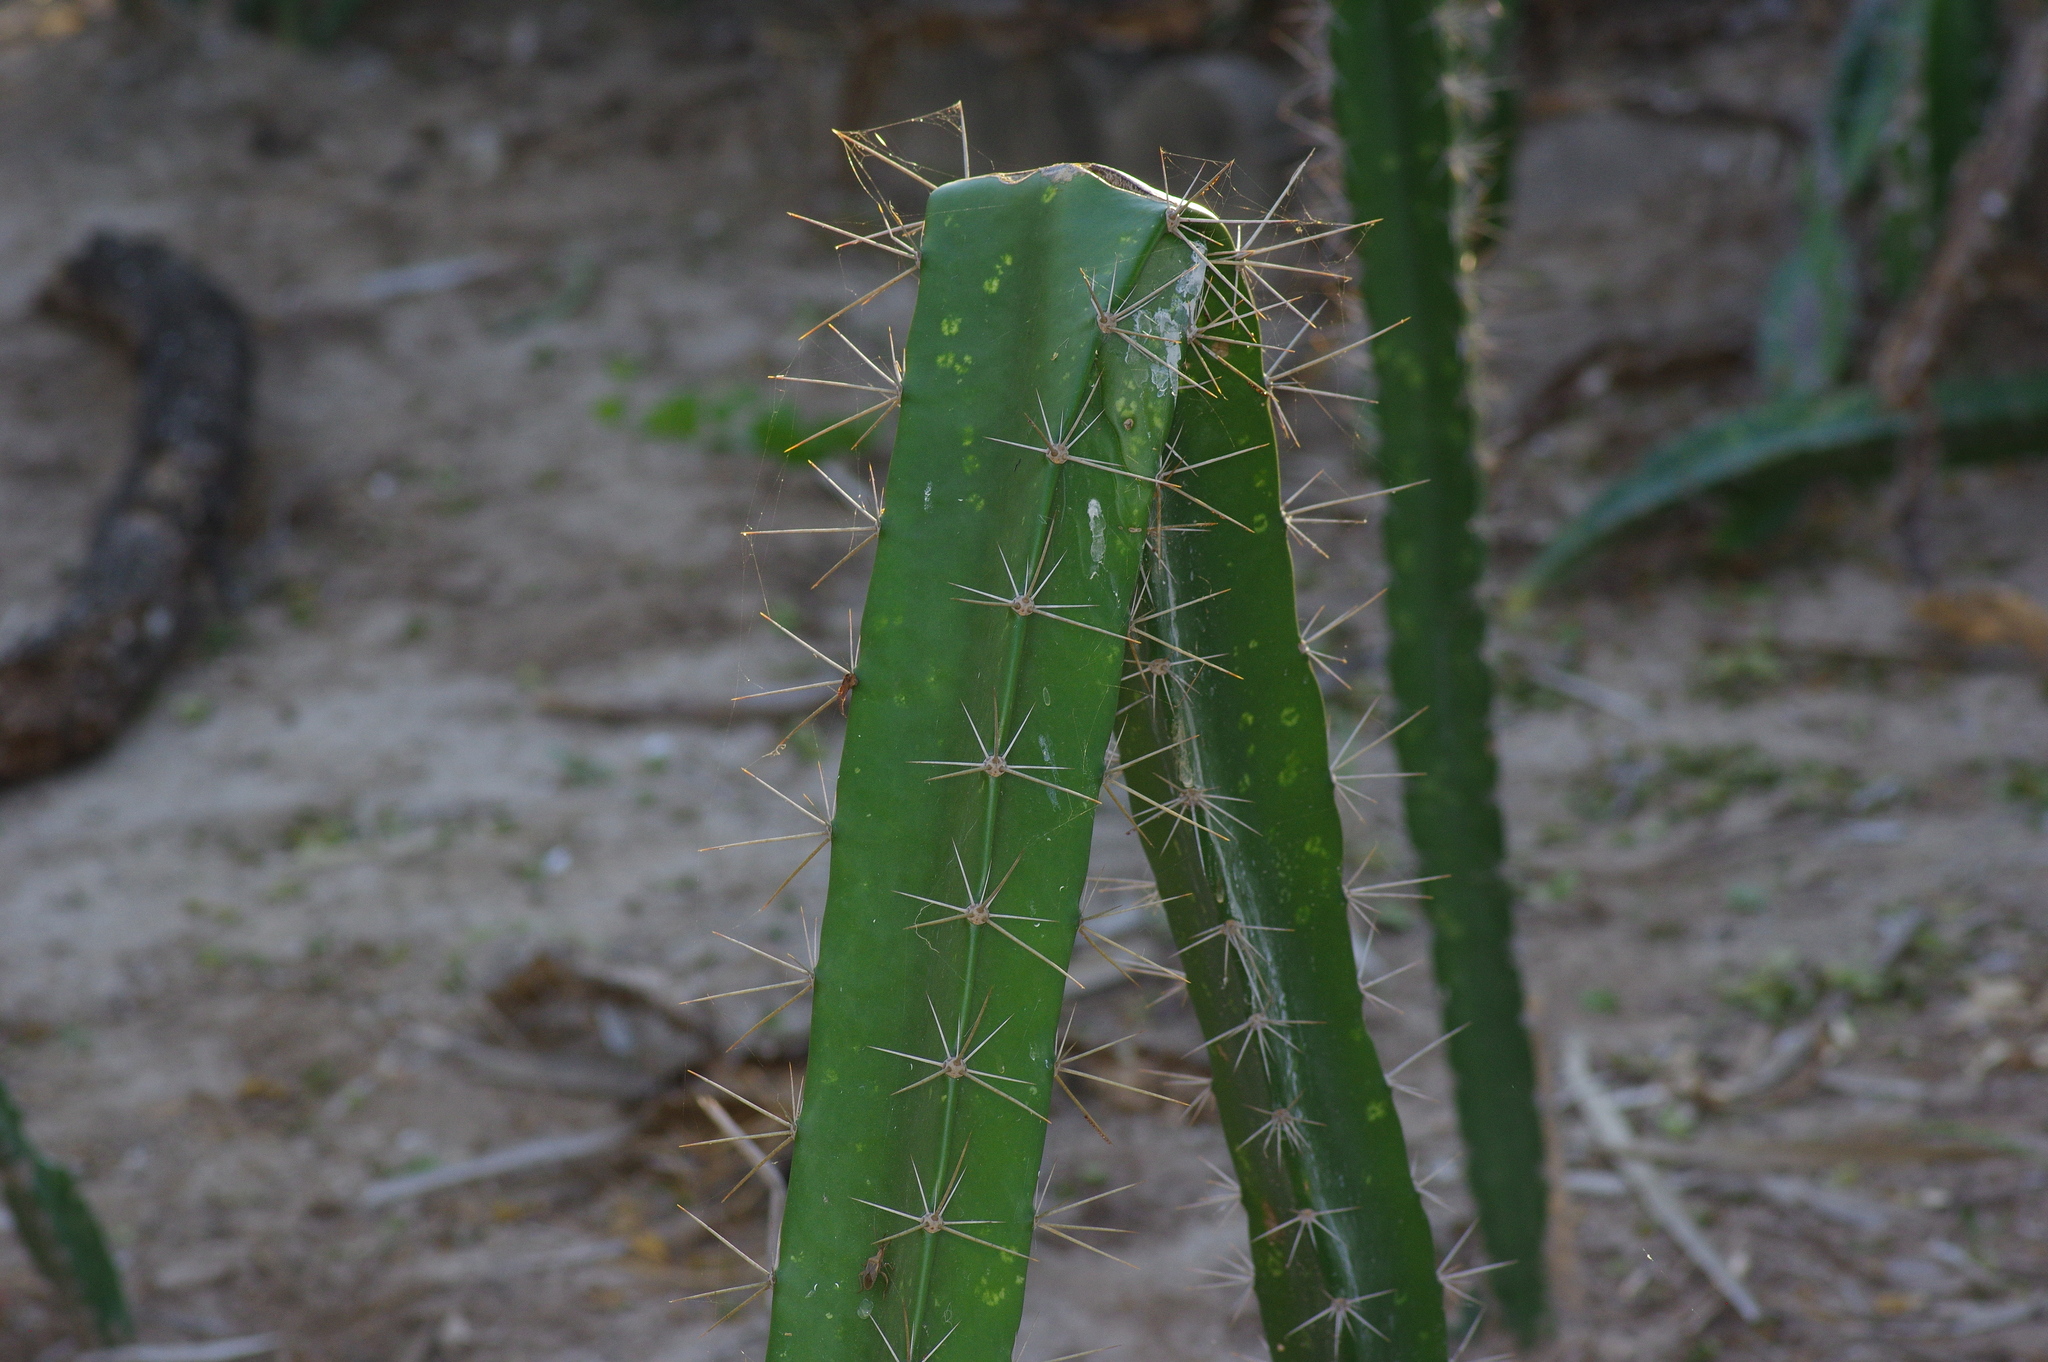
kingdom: Plantae
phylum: Tracheophyta
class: Magnoliopsida
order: Caryophyllales
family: Cactaceae
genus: Acanthocereus
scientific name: Acanthocereus tetragonus
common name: Triangle cactus
